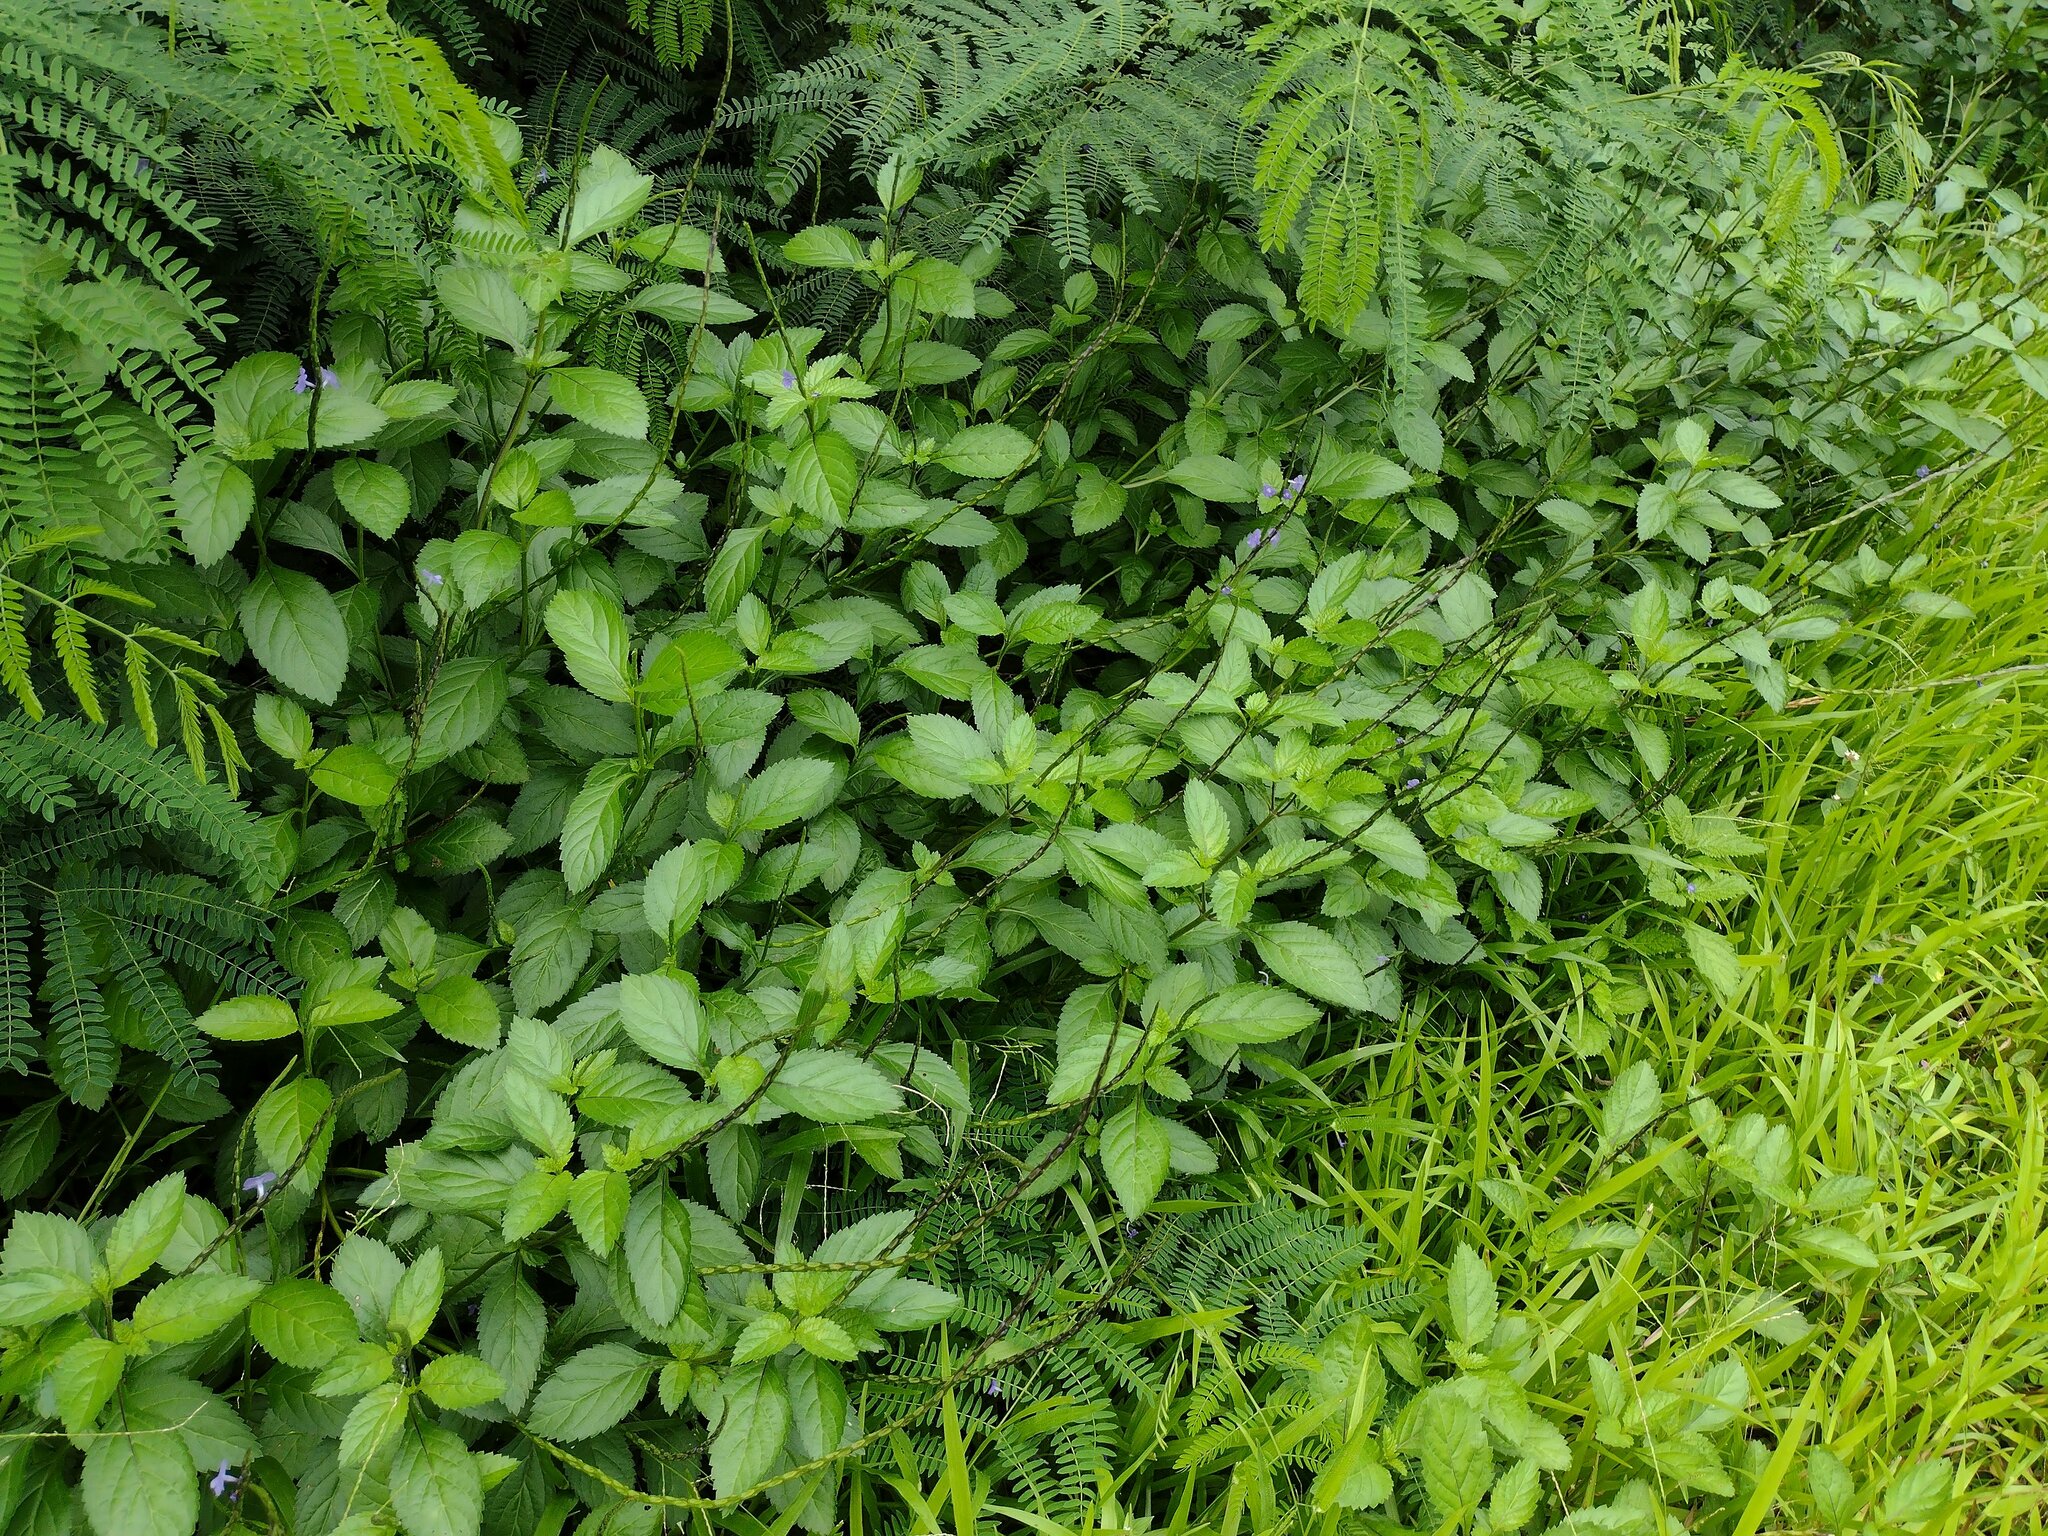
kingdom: Plantae
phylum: Tracheophyta
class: Magnoliopsida
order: Lamiales
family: Verbenaceae
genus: Stachytarpheta
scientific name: Stachytarpheta jamaicensis
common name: Light-blue snakeweed
